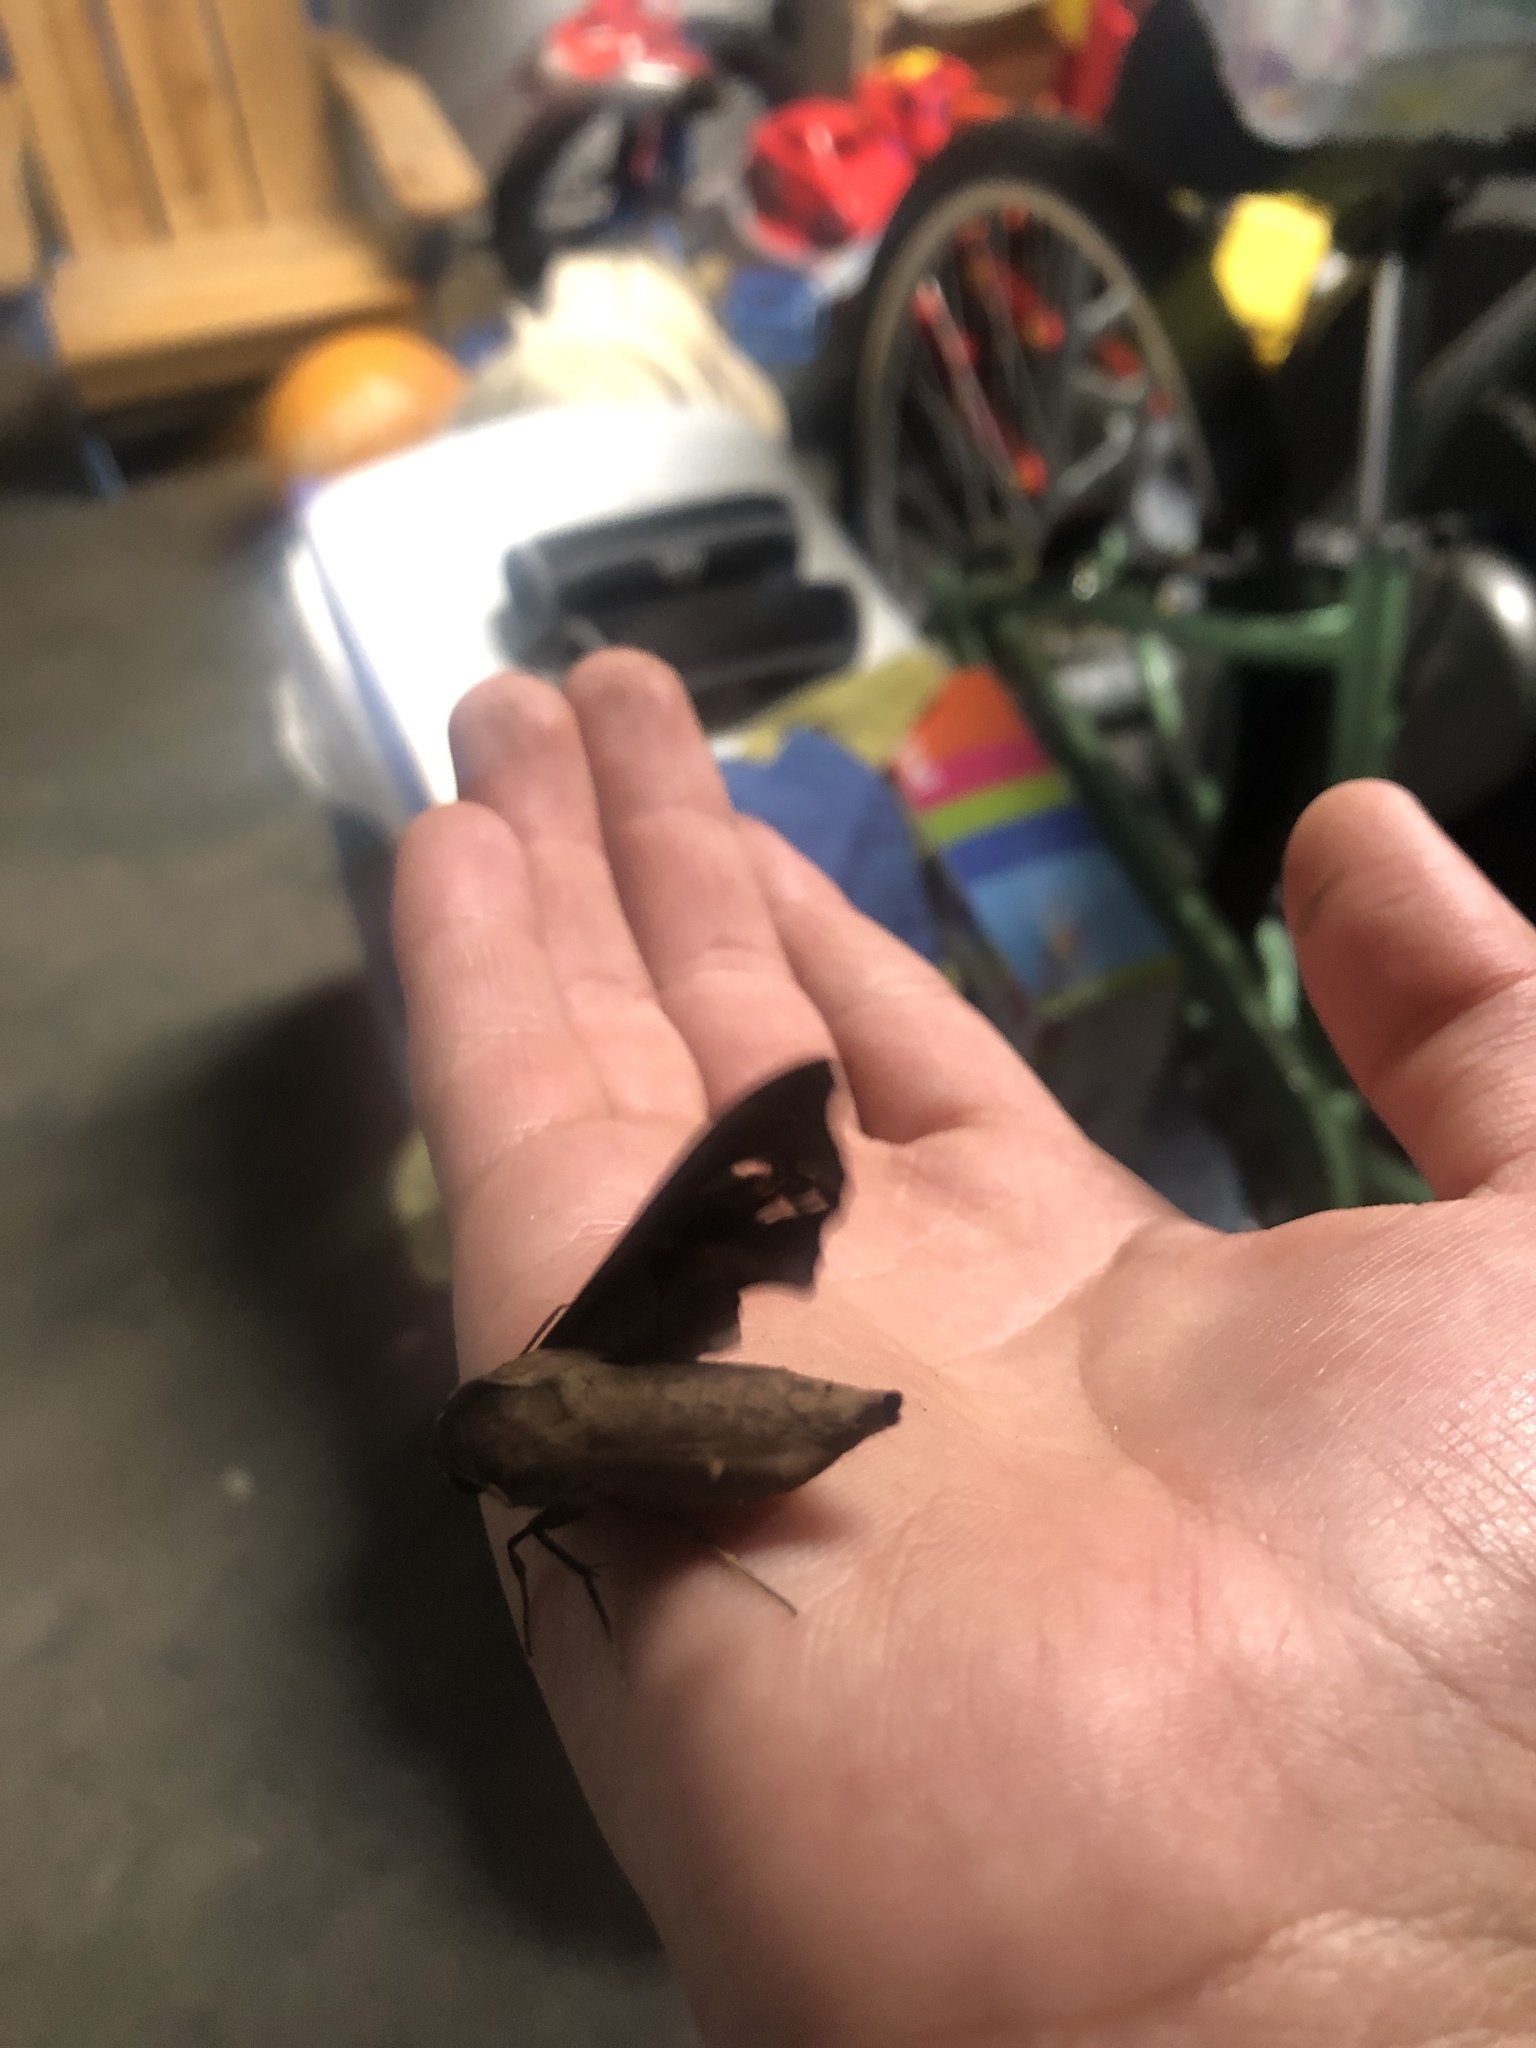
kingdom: Animalia
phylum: Arthropoda
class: Insecta
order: Lepidoptera
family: Sphingidae
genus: Enyo
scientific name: Enyo lugubris
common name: Mournful sphinx
